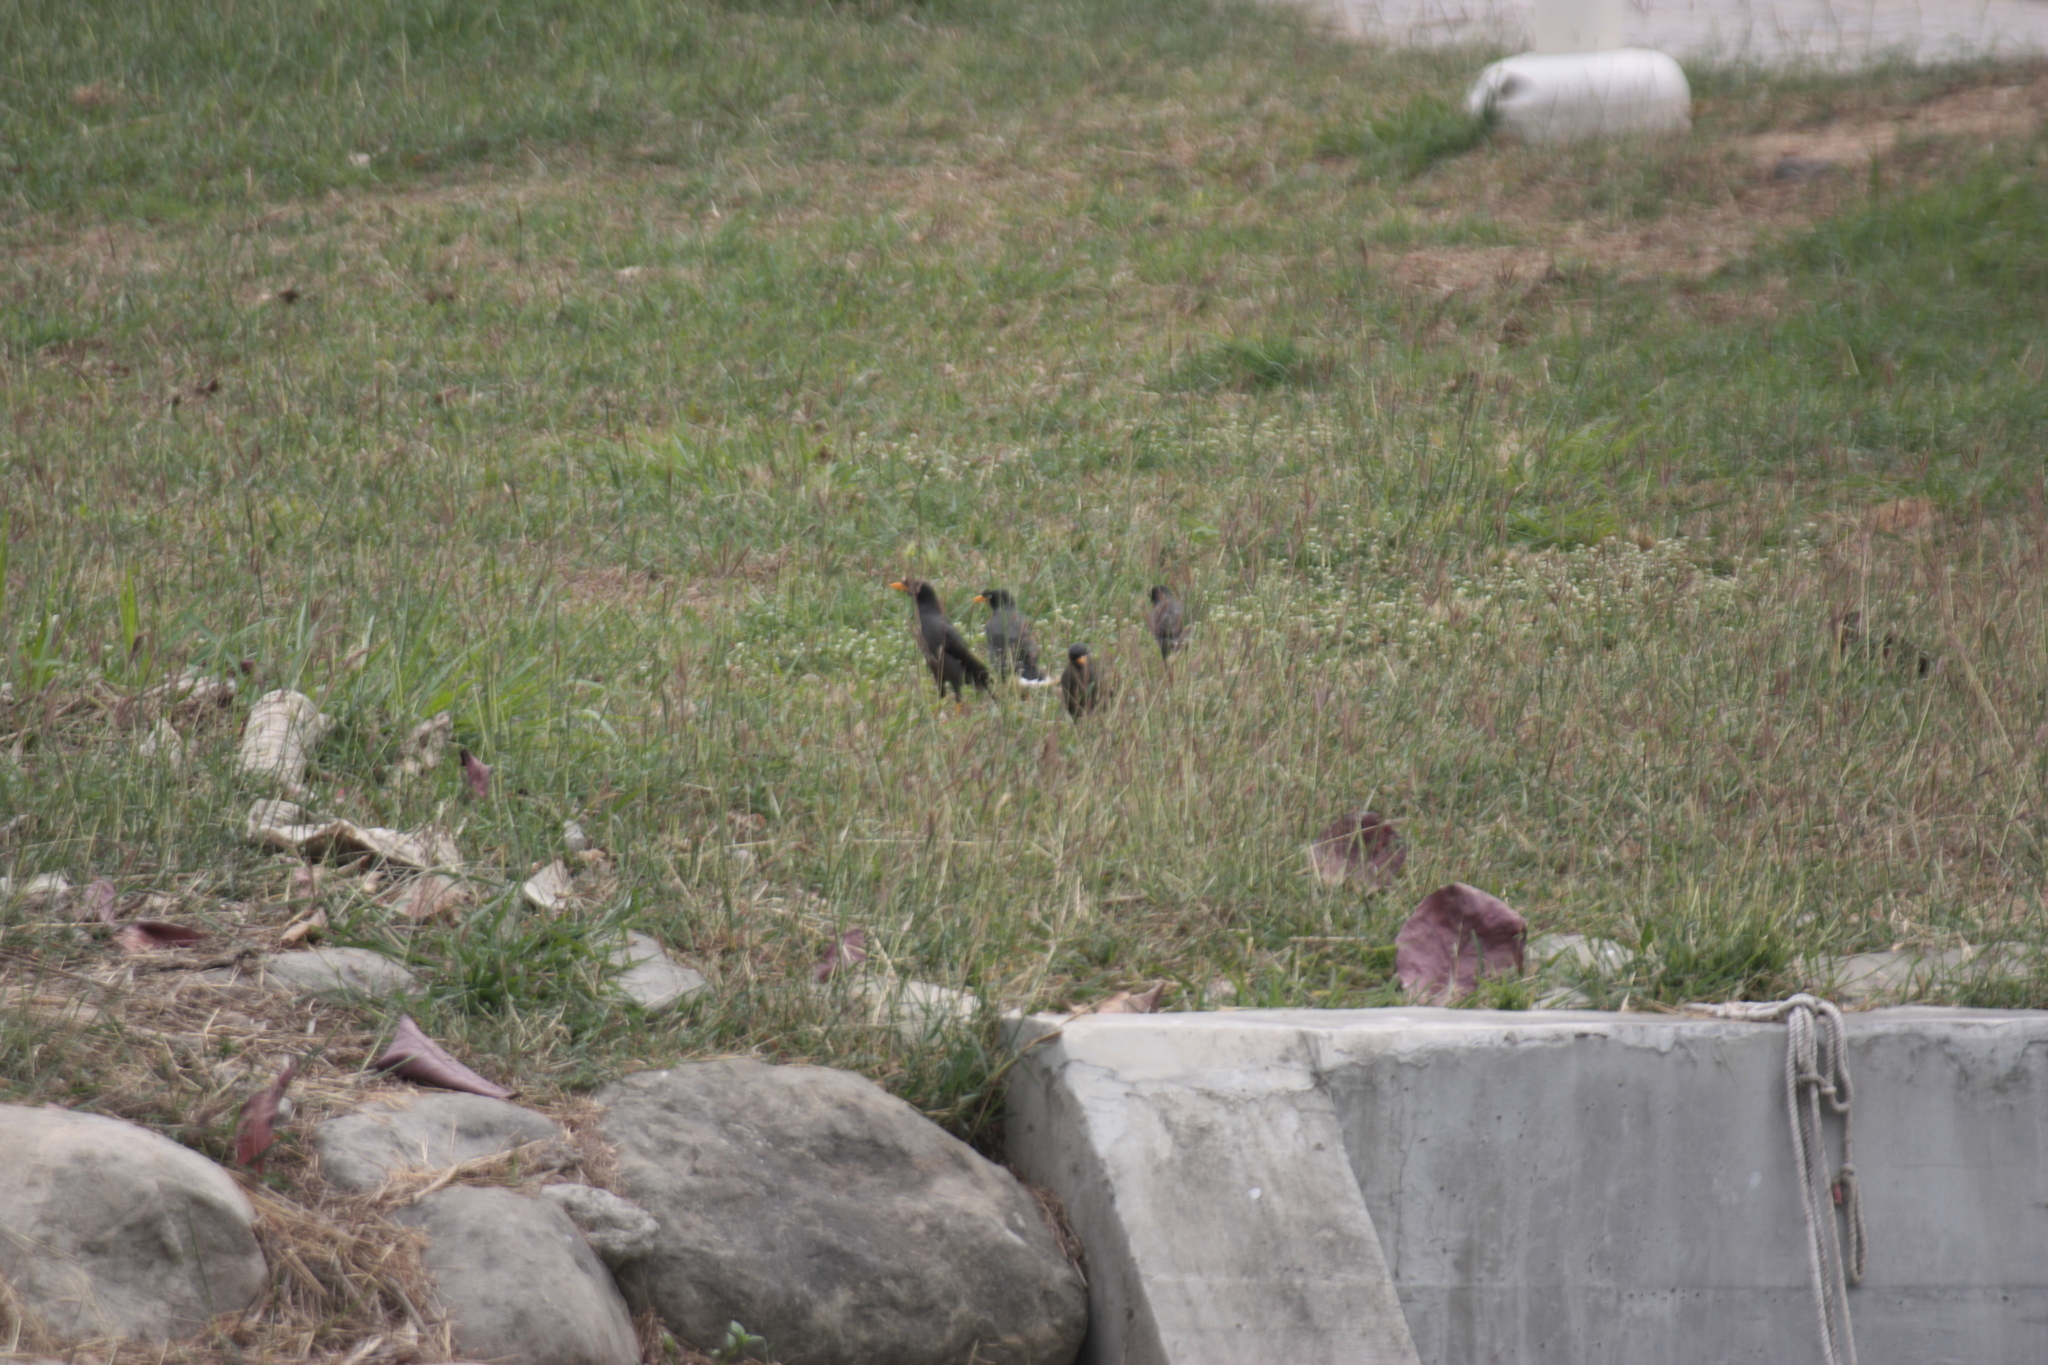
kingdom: Animalia
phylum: Chordata
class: Aves
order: Passeriformes
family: Sturnidae
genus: Acridotheres
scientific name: Acridotheres javanicus
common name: Javan myna
